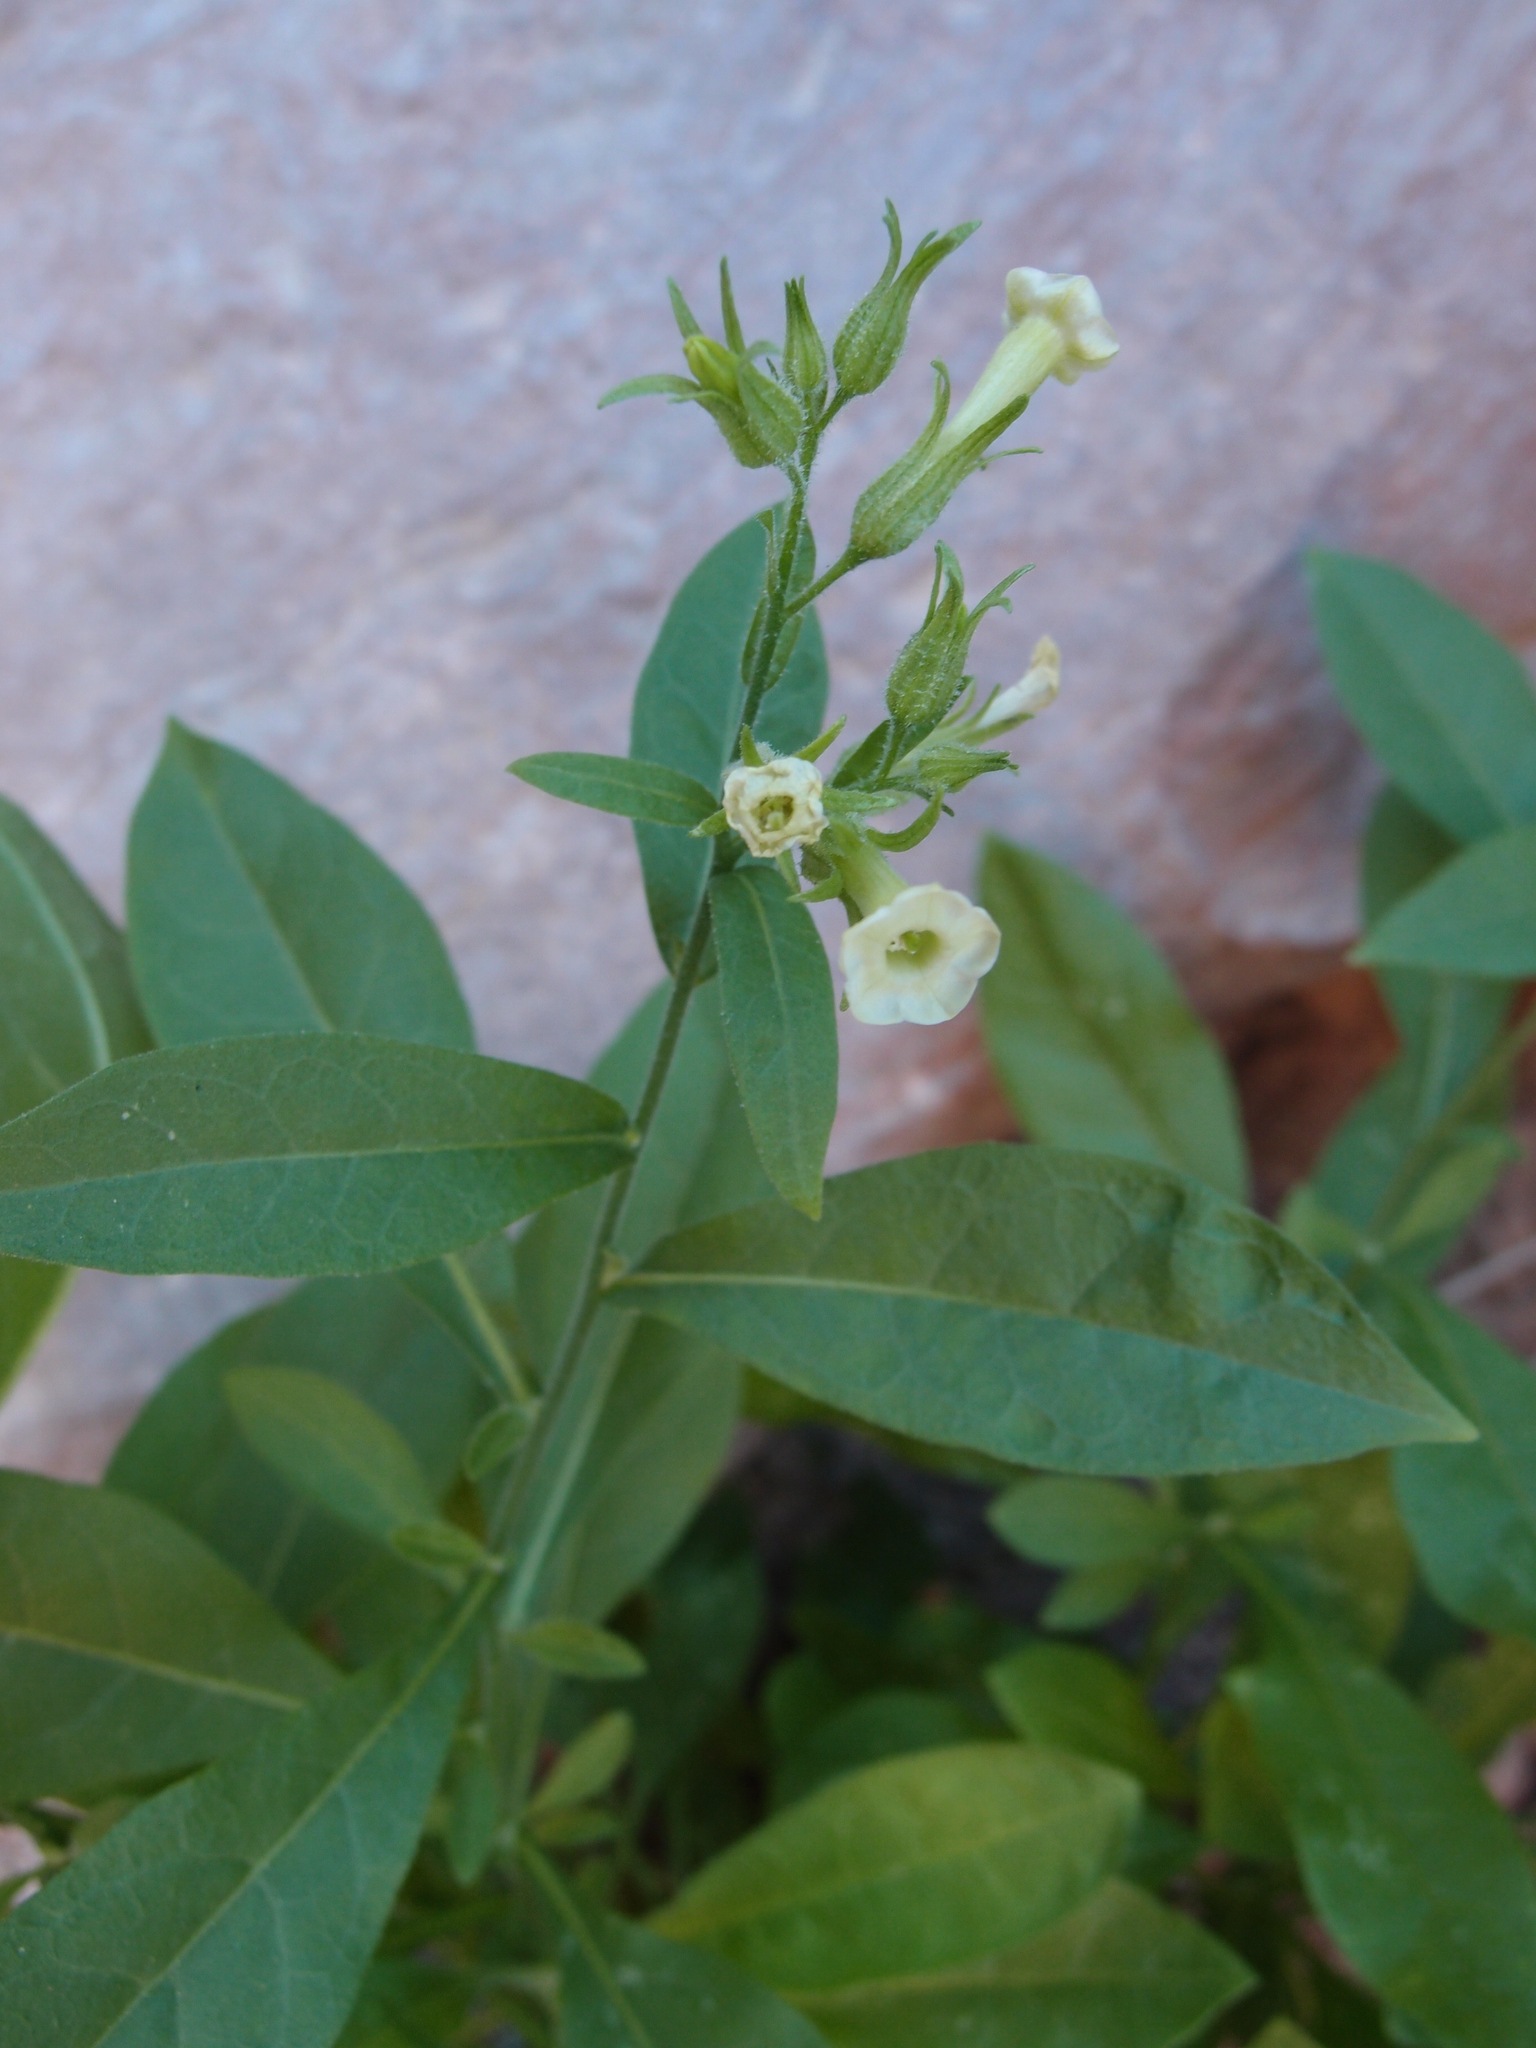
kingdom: Plantae
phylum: Tracheophyta
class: Magnoliopsida
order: Solanales
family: Solanaceae
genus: Nicotiana
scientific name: Nicotiana obtusifolia
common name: Desert tobacco
